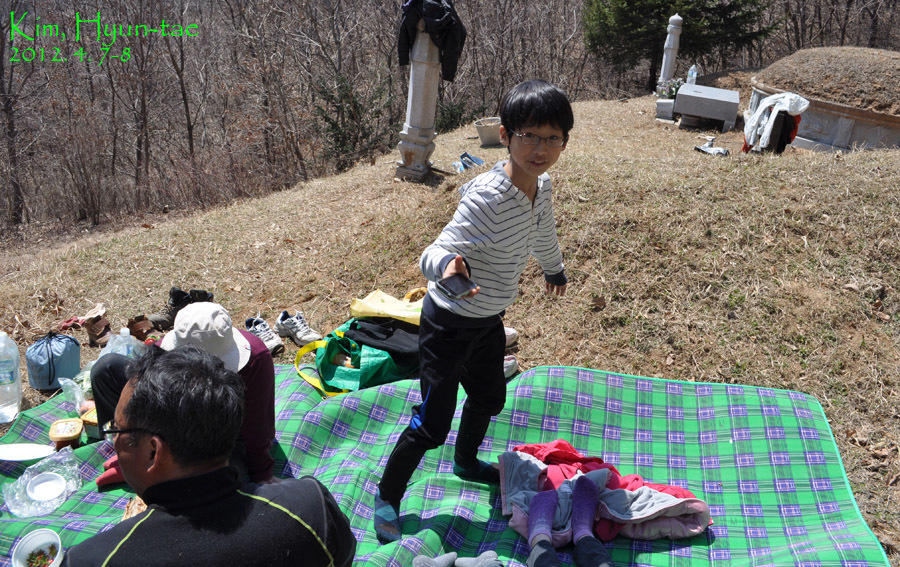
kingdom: Animalia
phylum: Chordata
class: Amphibia
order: Anura
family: Hylidae
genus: Dryophytes
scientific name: Dryophytes japonicus
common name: Japanese treefrog
